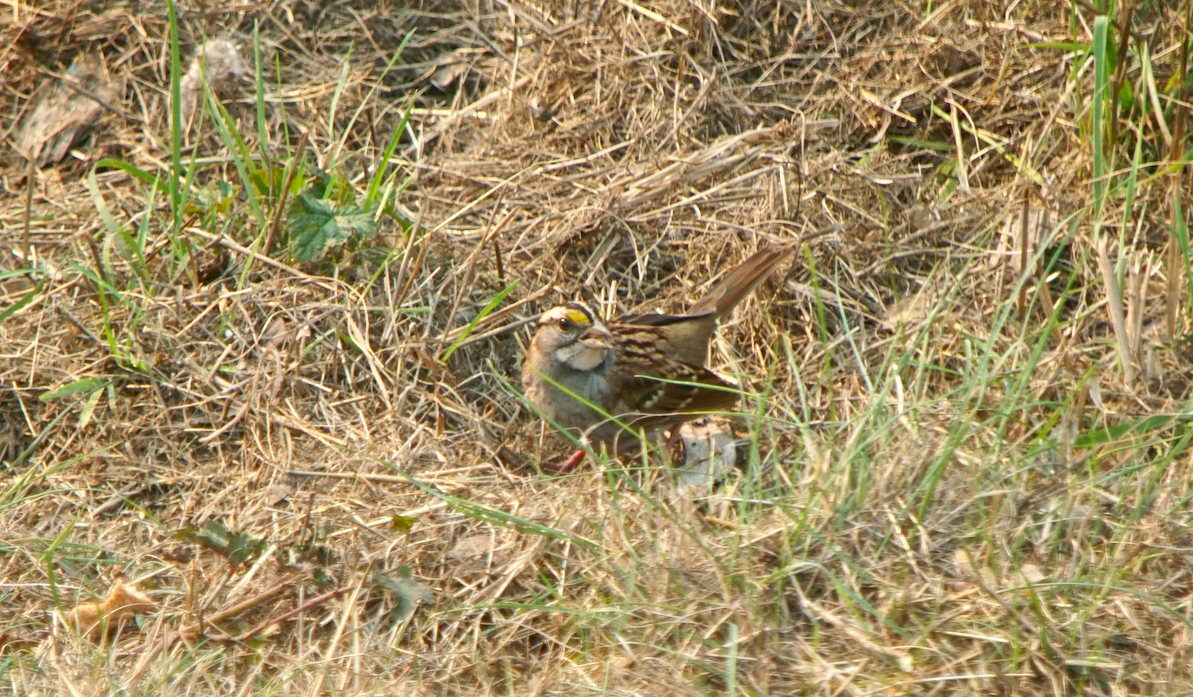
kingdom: Animalia
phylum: Chordata
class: Aves
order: Passeriformes
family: Passerellidae
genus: Zonotrichia
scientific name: Zonotrichia albicollis
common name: White-throated sparrow
